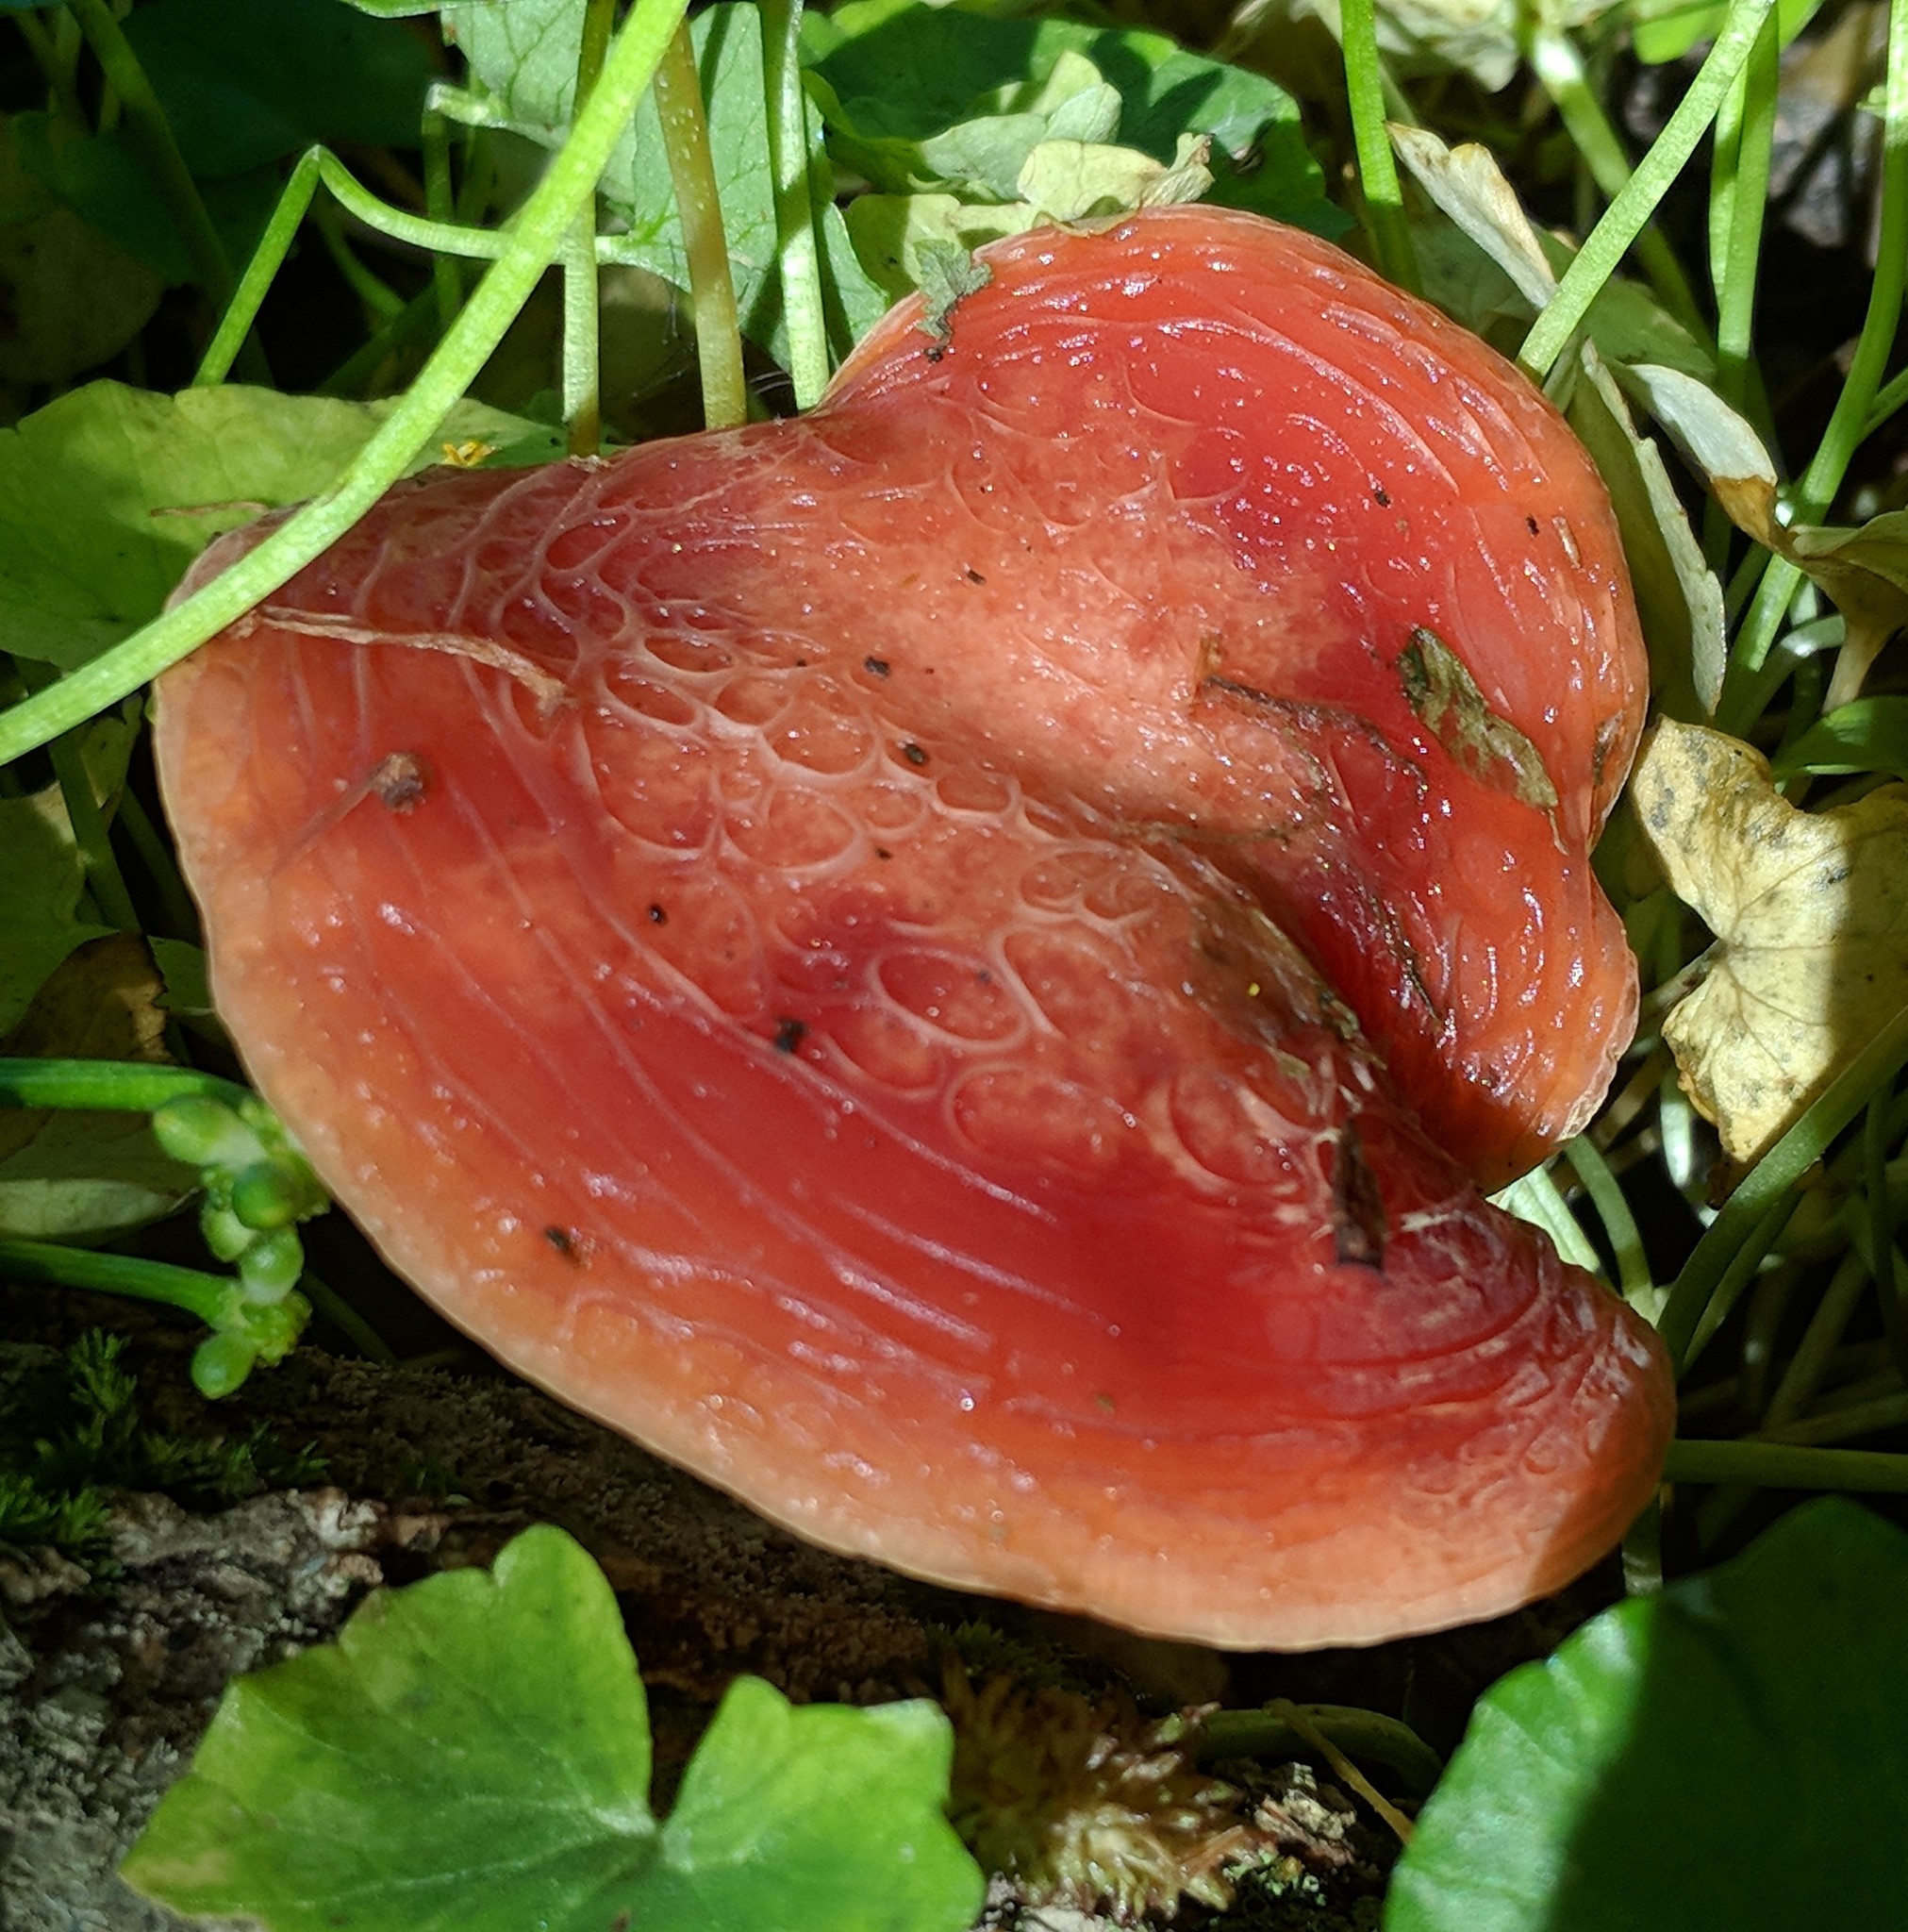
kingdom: Fungi
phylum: Basidiomycota
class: Agaricomycetes
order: Agaricales
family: Physalacriaceae
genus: Rhodotus
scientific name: Rhodotus palmatus
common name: Wrinkled peach
